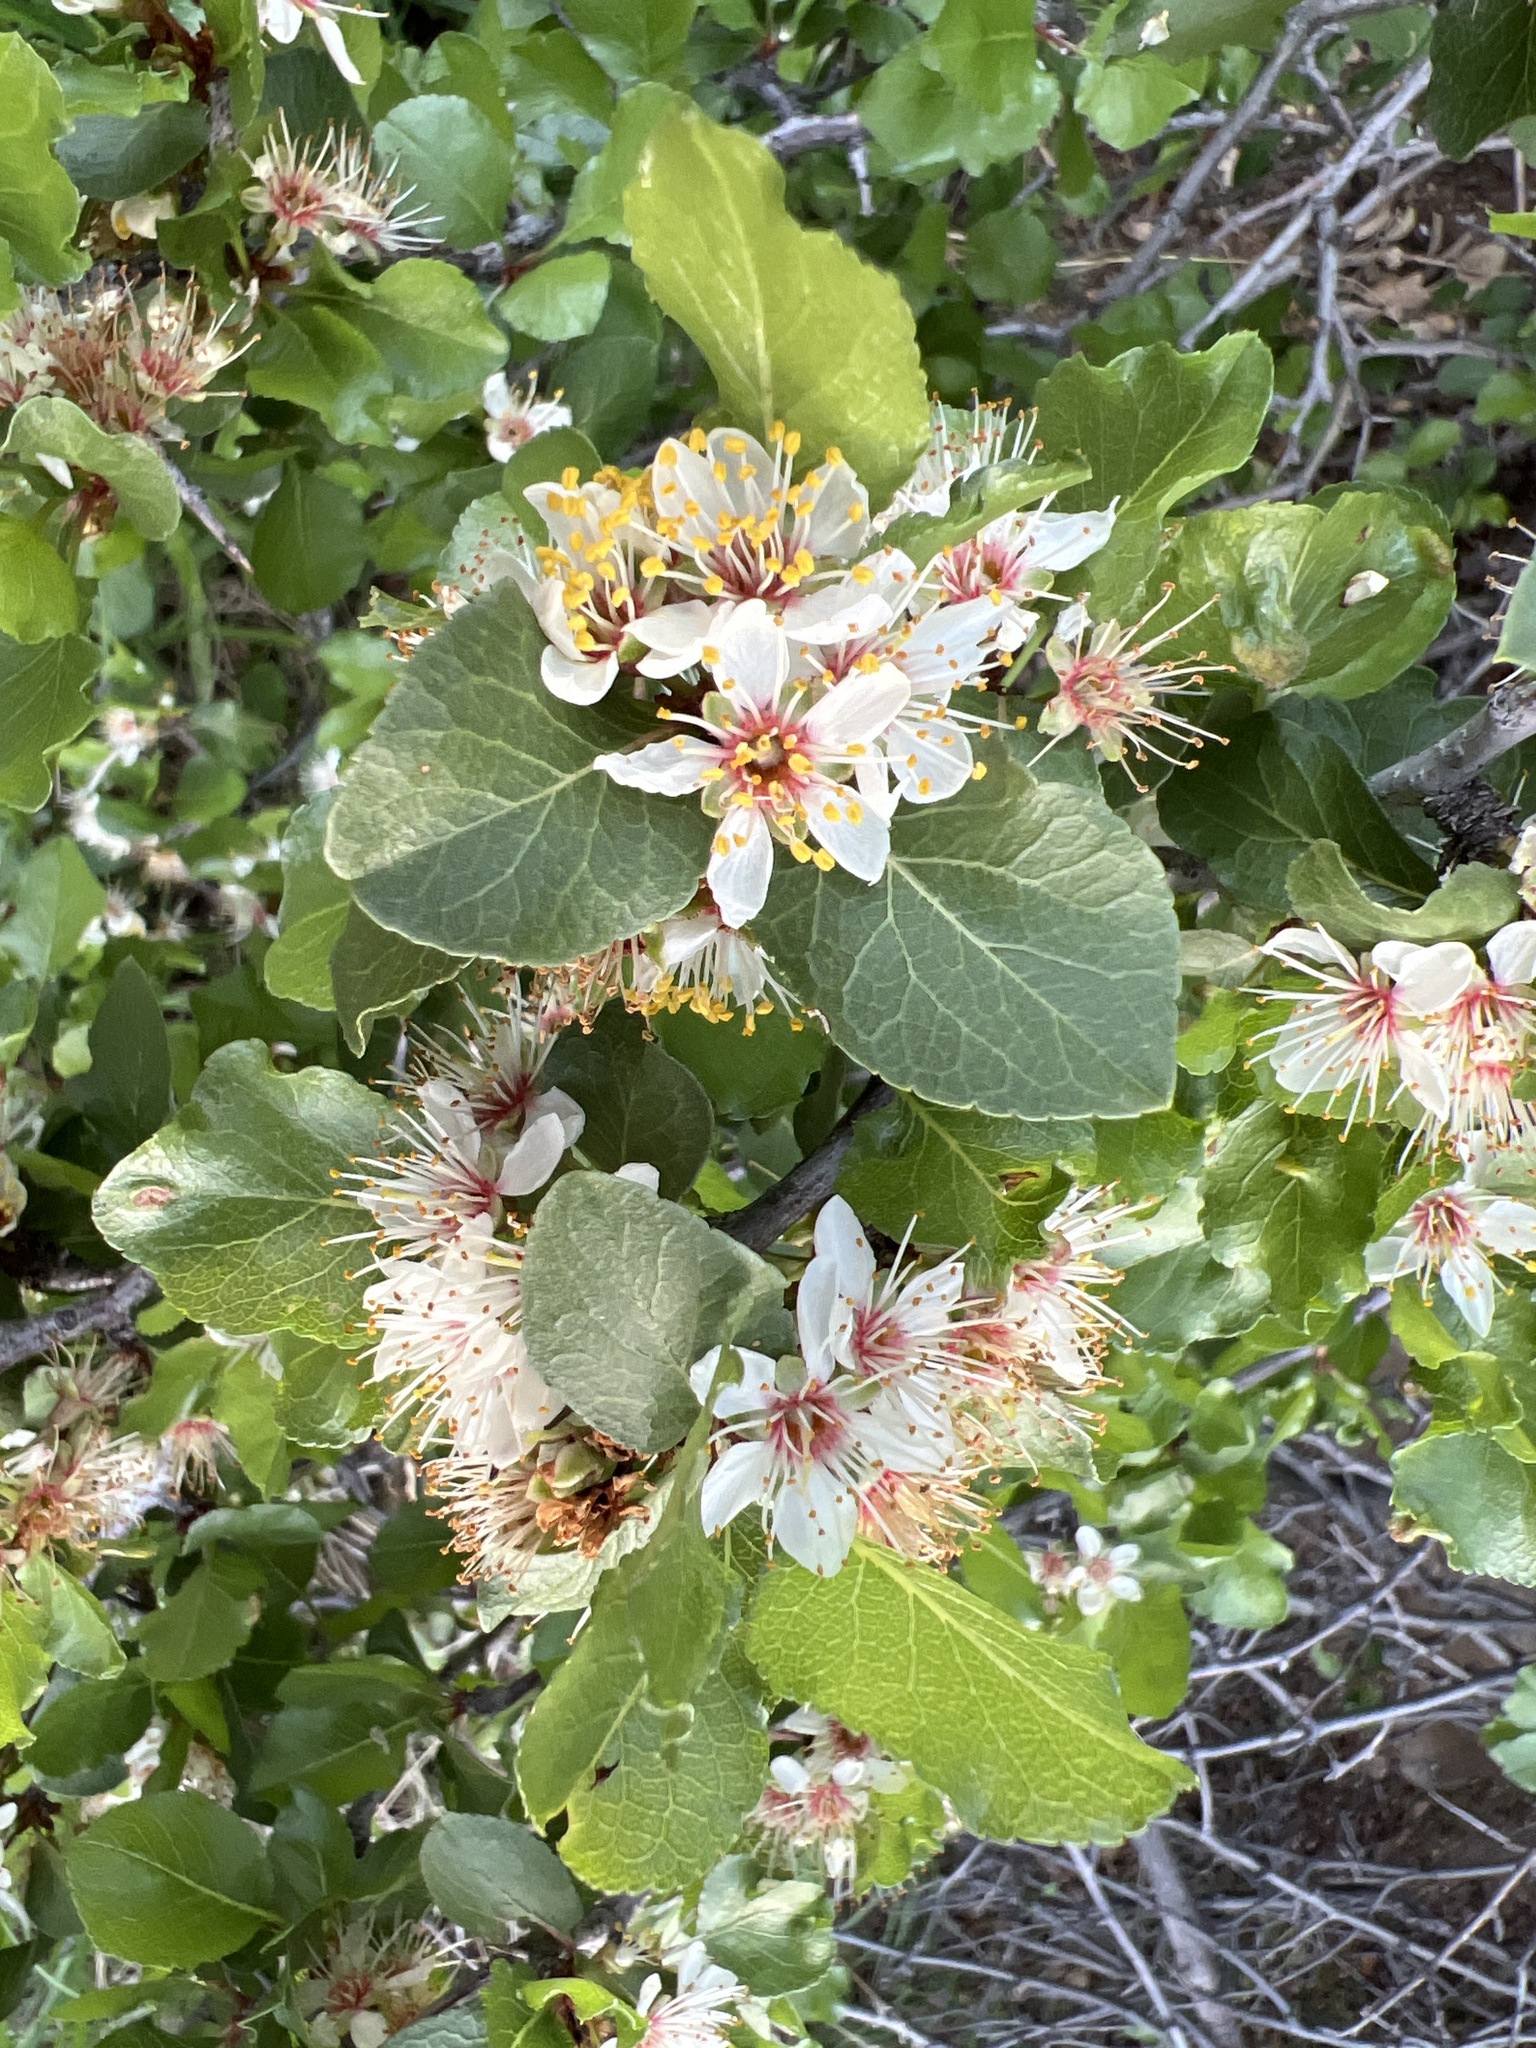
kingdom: Plantae
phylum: Tracheophyta
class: Magnoliopsida
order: Rosales
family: Rosaceae
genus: Prunus
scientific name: Prunus fremontii
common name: Desert apricot
